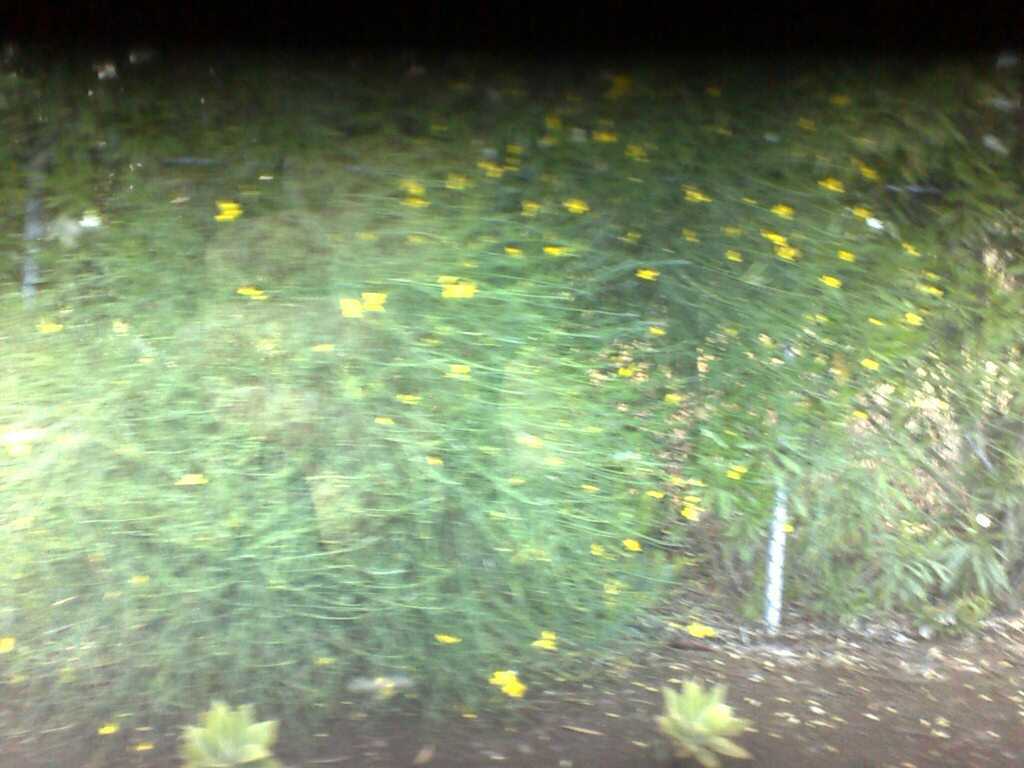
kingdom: Plantae
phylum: Tracheophyta
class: Magnoliopsida
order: Fabales
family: Fabaceae
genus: Spartium
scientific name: Spartium junceum
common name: Spanish broom
